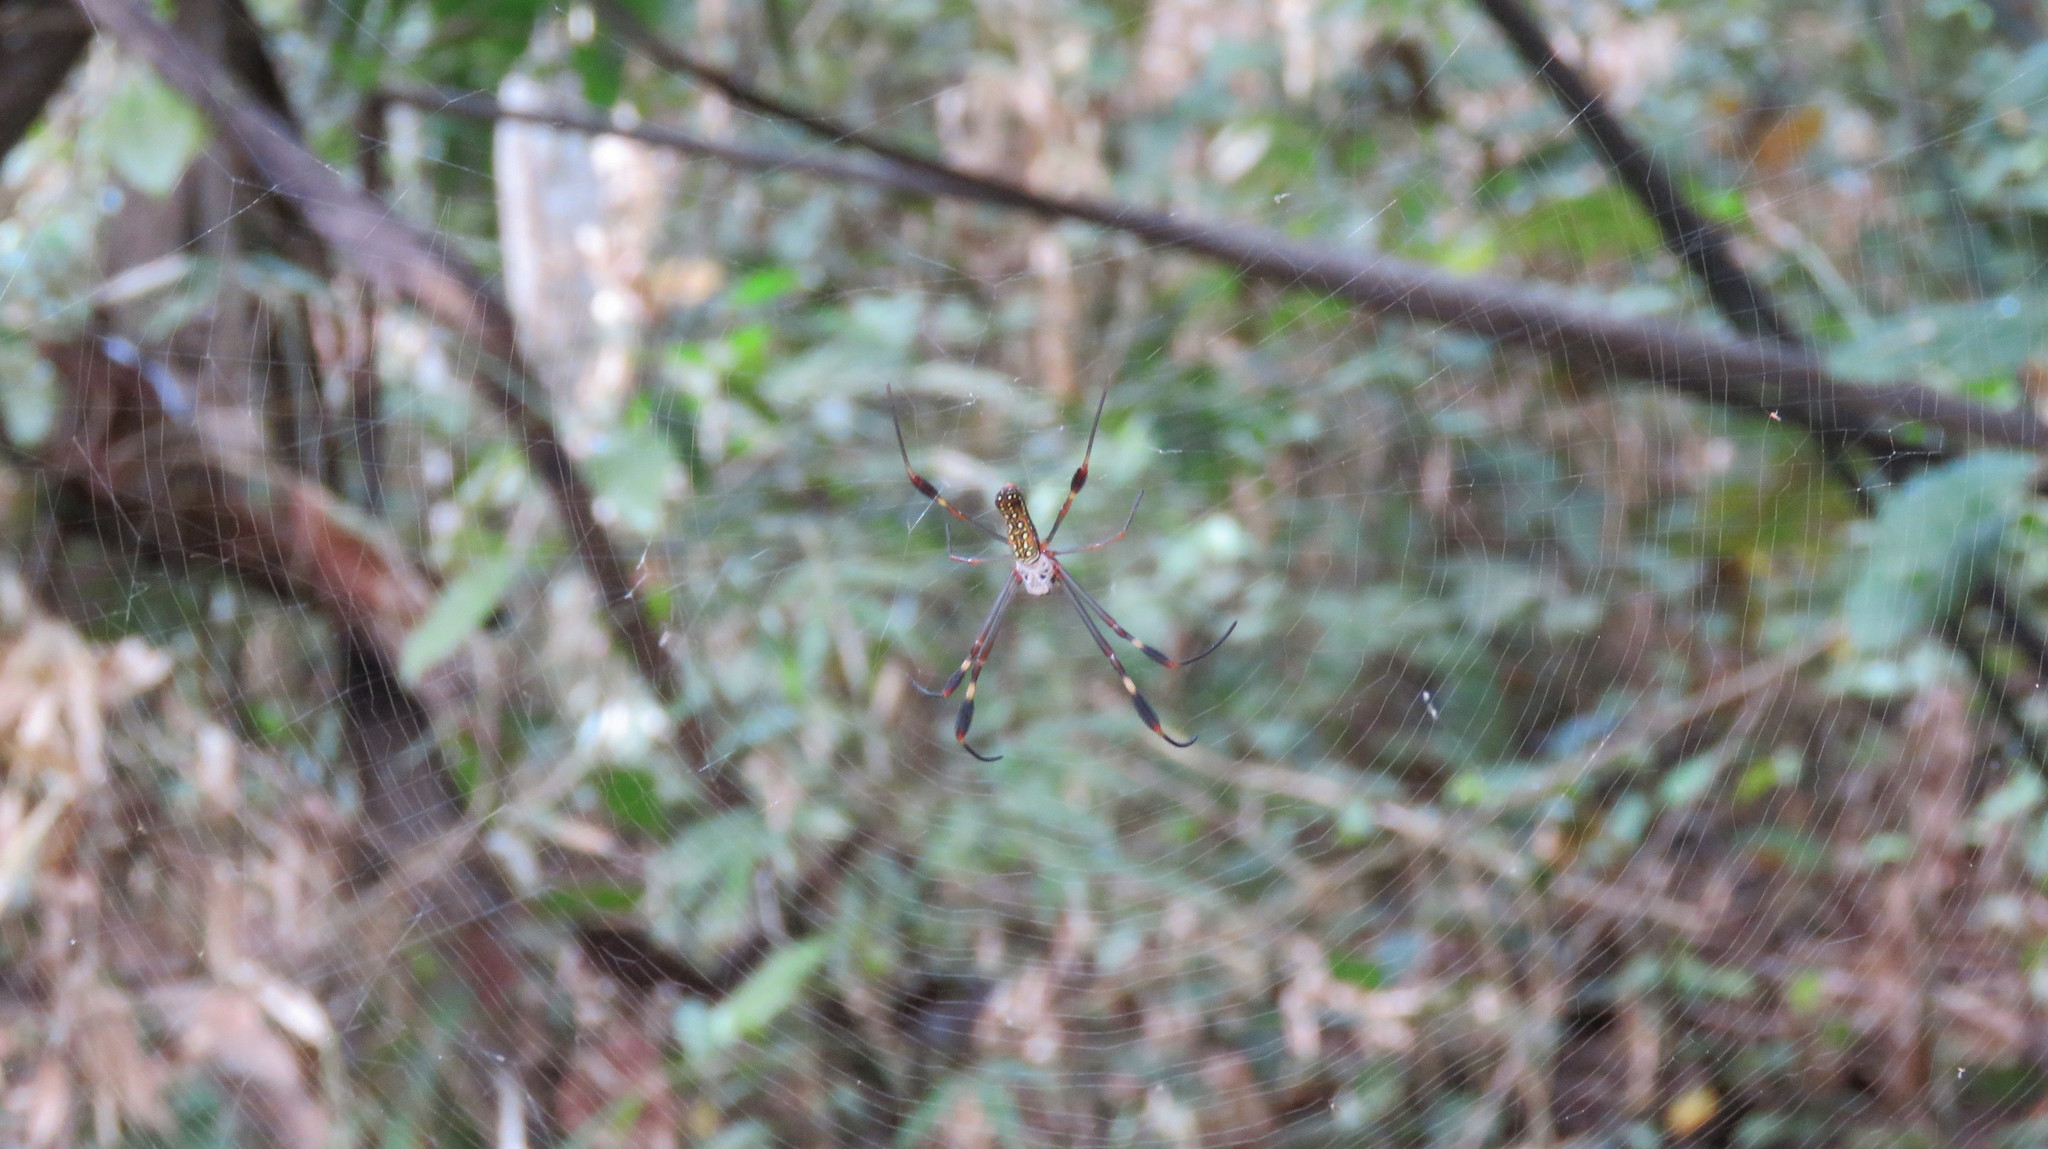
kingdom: Animalia
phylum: Arthropoda
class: Arachnida
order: Araneae
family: Araneidae
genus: Trichonephila
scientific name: Trichonephila clavipes
